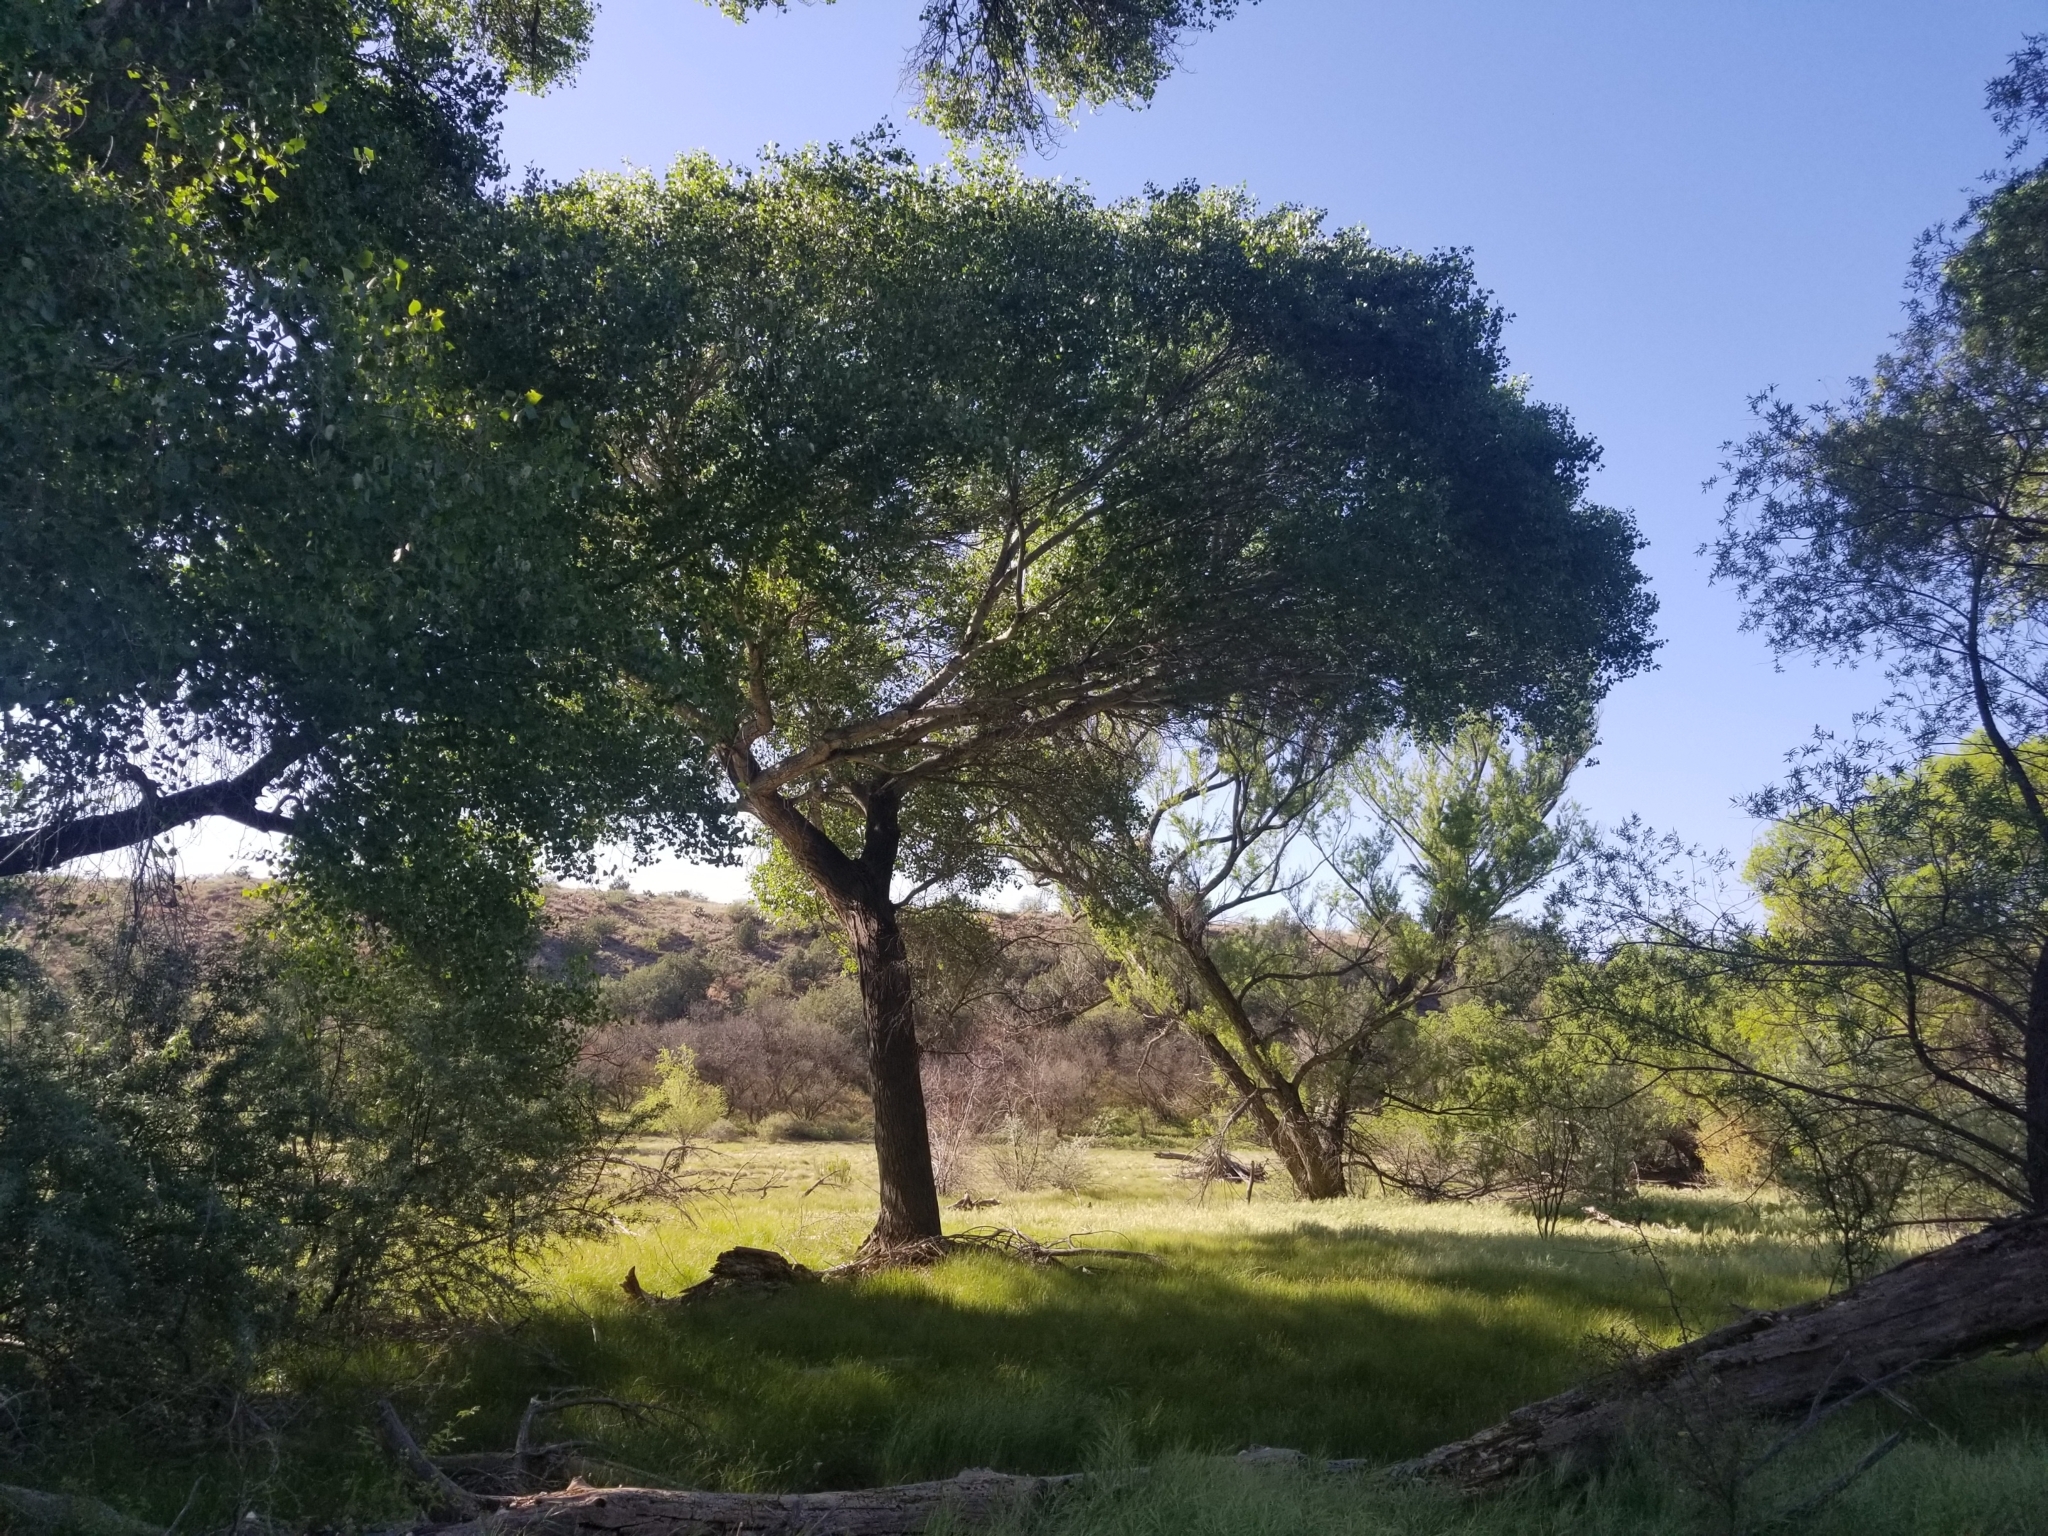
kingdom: Plantae
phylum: Tracheophyta
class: Magnoliopsida
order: Malpighiales
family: Salicaceae
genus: Populus
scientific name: Populus fremontii
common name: Fremont's cottonwood
